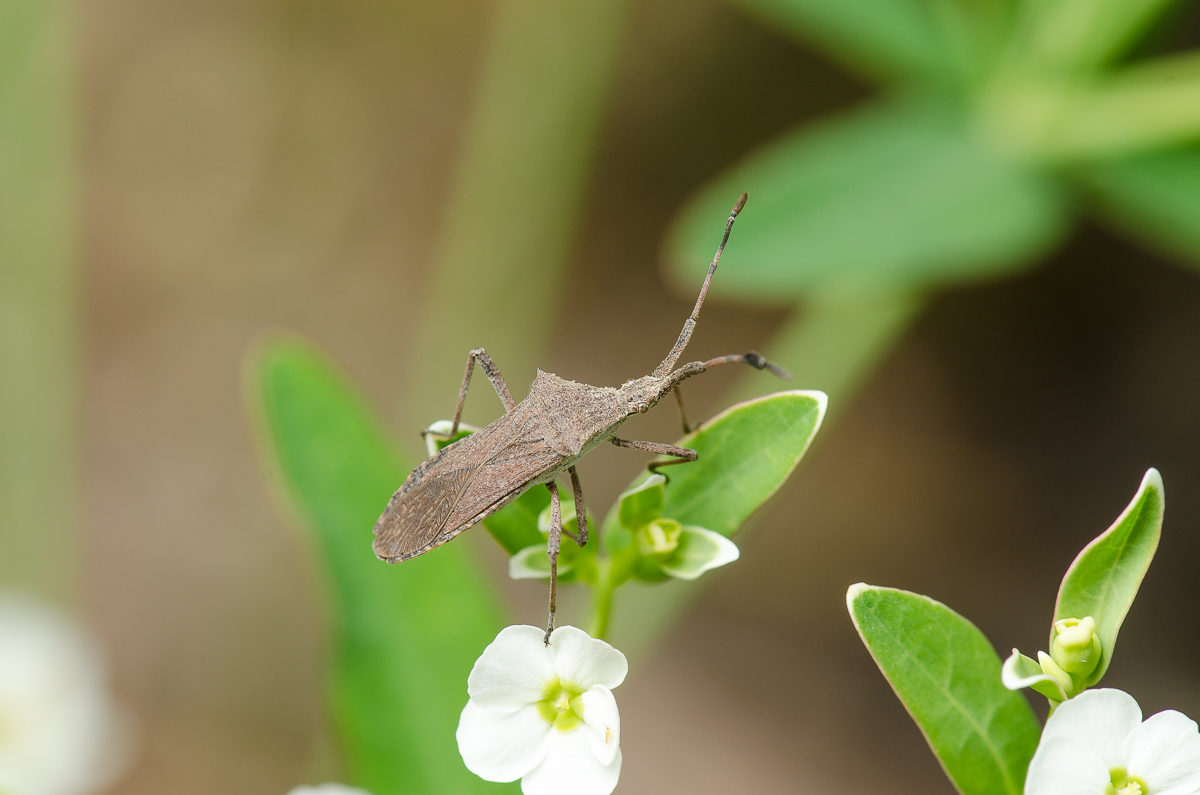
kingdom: Animalia
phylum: Arthropoda
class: Insecta
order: Hemiptera
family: Coreidae
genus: Chariesterus
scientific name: Chariesterus antennator
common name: Flat horned coreid
